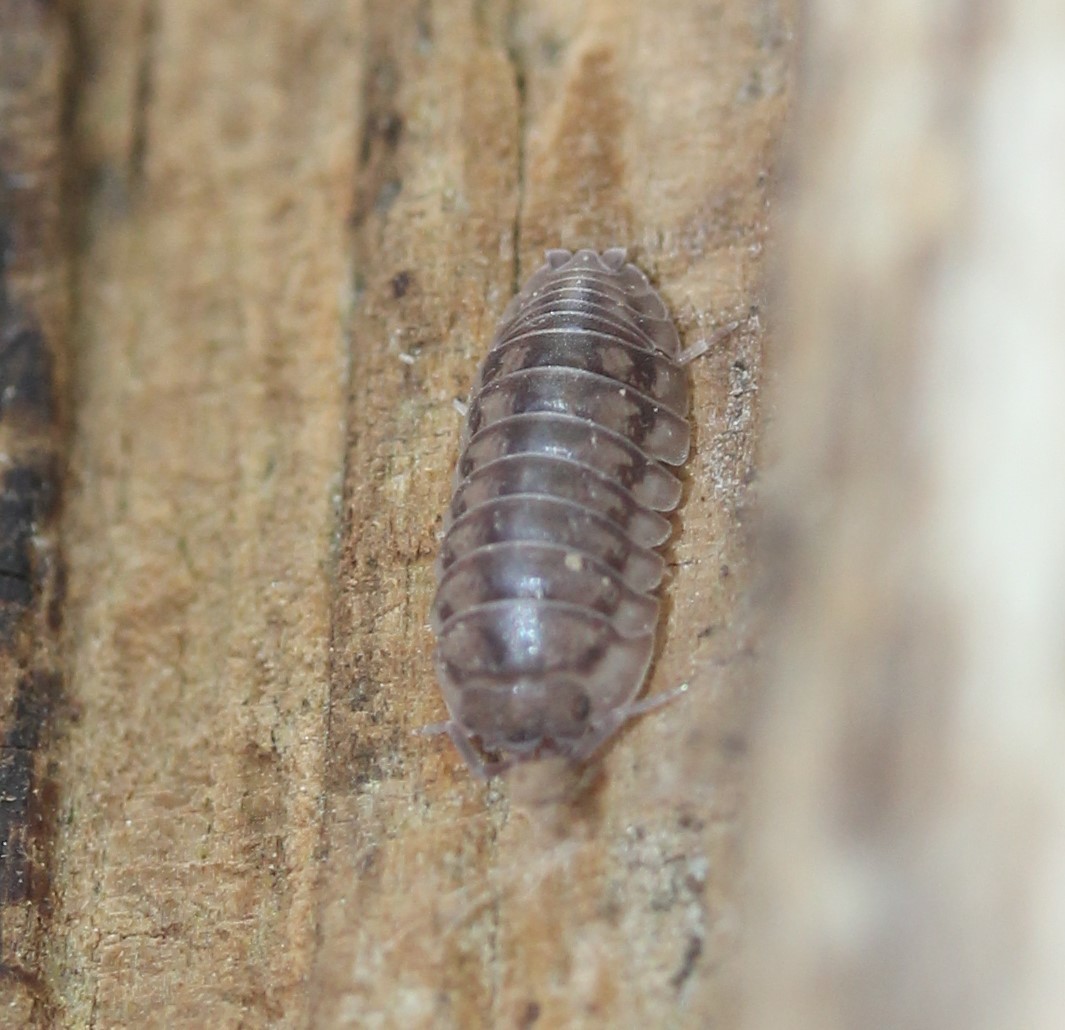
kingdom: Animalia
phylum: Arthropoda
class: Malacostraca
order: Isopoda
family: Armadillidiidae
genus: Armadillidium
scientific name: Armadillidium nasatum
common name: Isopod
